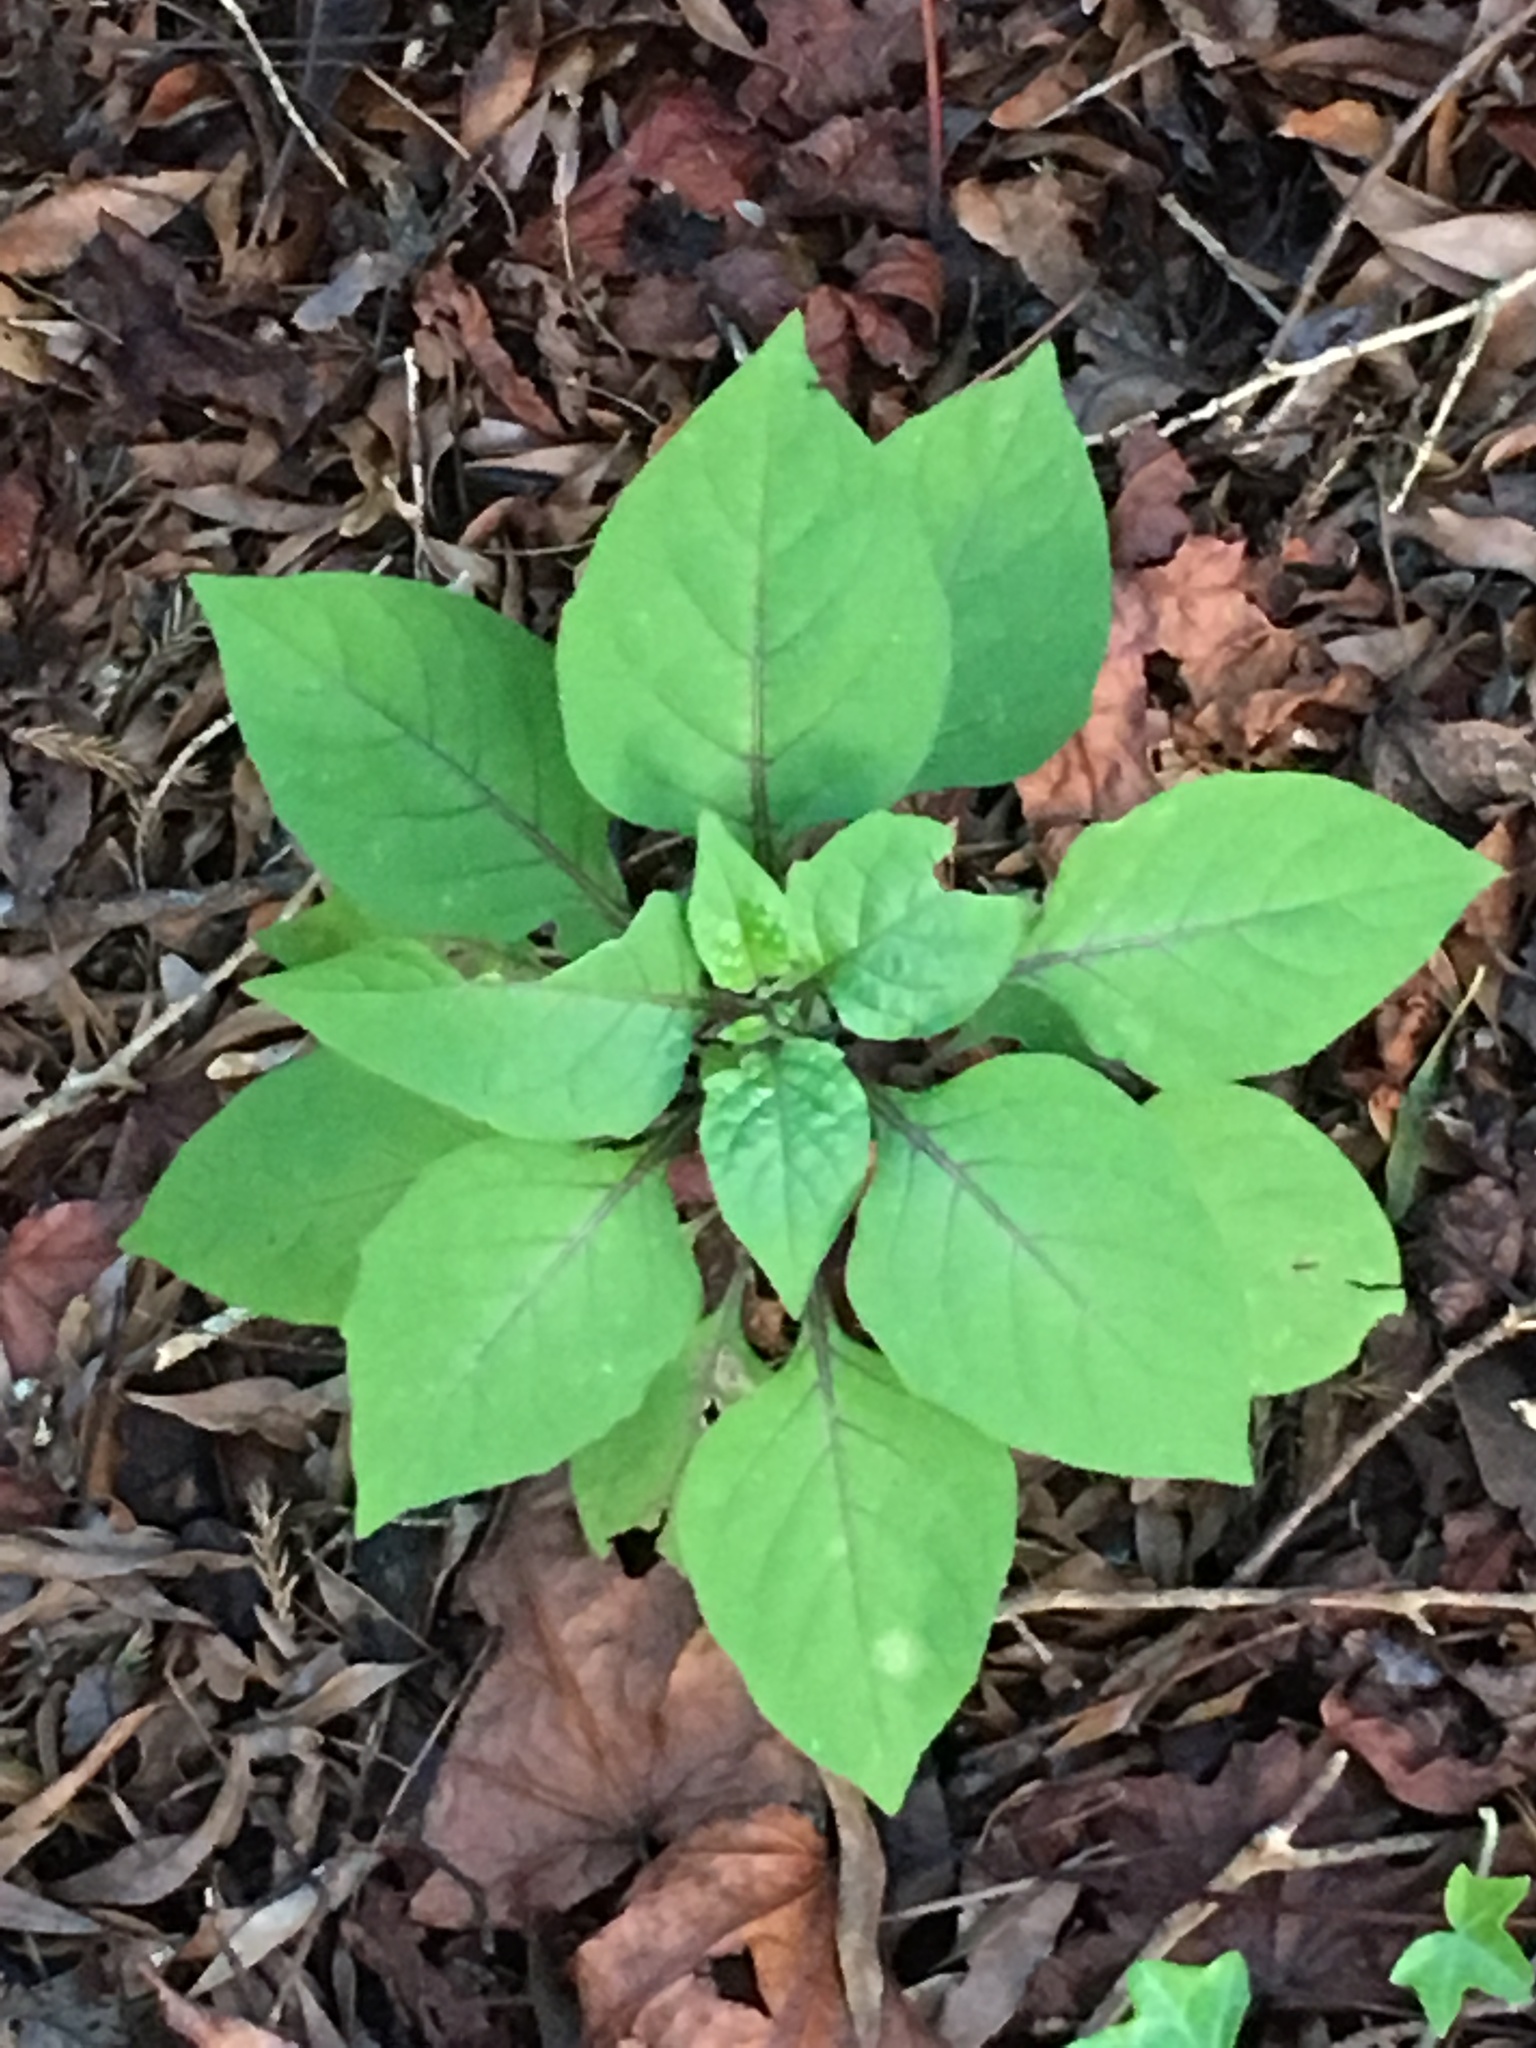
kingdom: Plantae
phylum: Tracheophyta
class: Magnoliopsida
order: Solanales
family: Solanaceae
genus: Solanum
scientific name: Solanum nigrum
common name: Black nightshade
